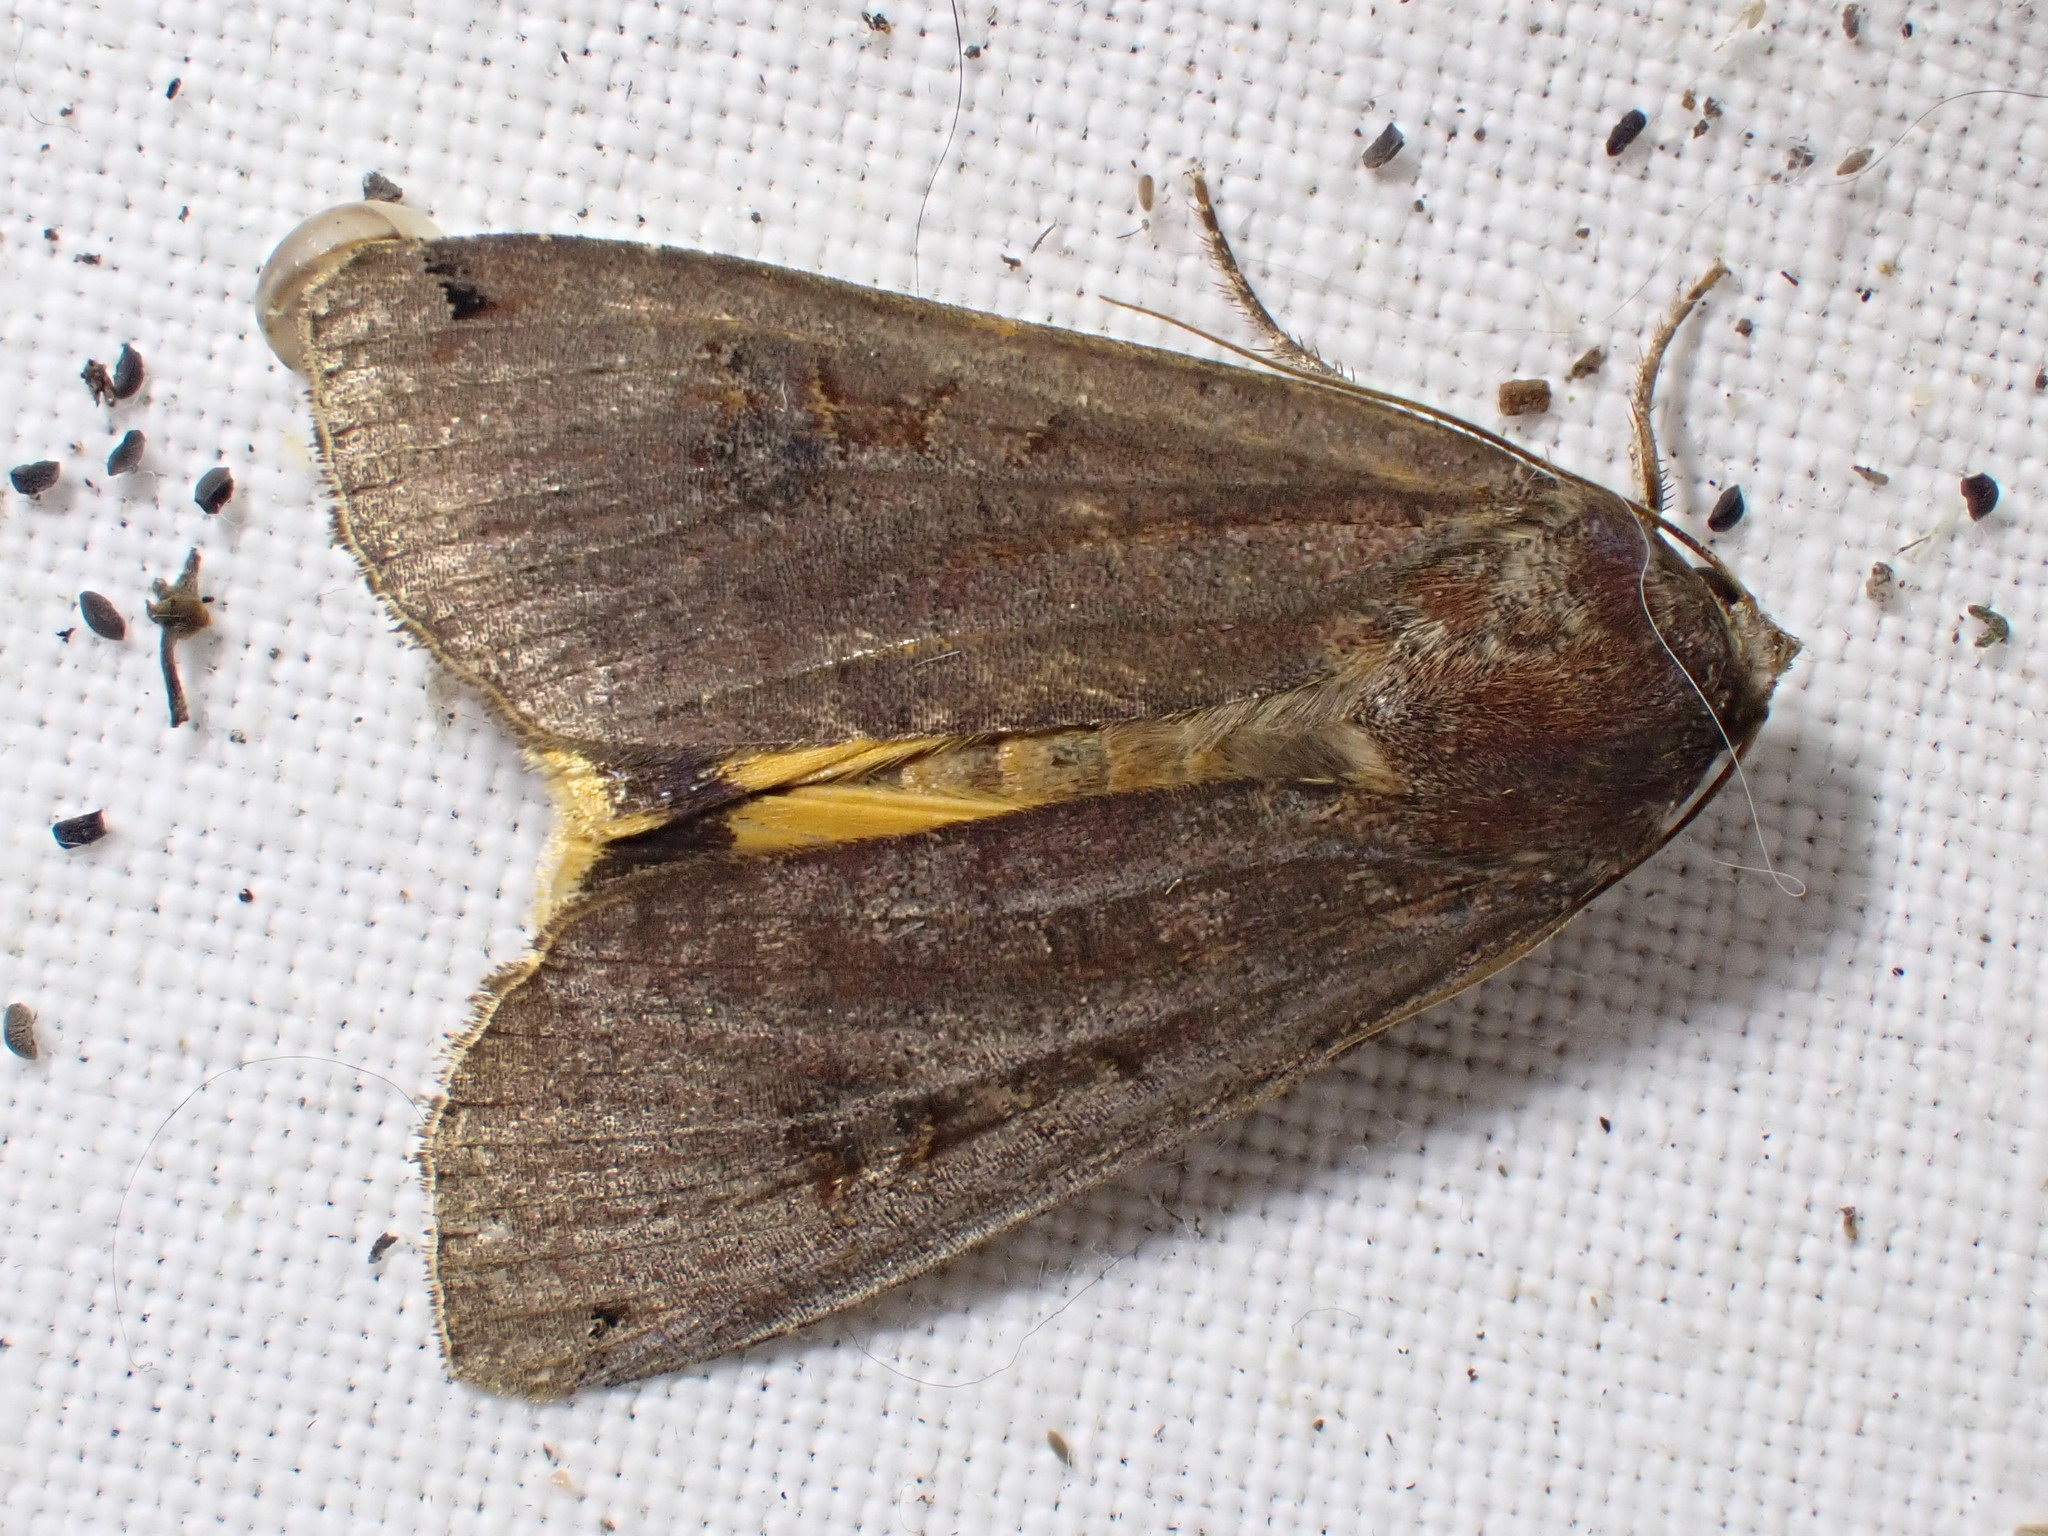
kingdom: Animalia
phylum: Arthropoda
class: Insecta
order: Lepidoptera
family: Noctuidae
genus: Noctua
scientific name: Noctua pronuba
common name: Large yellow underwing
